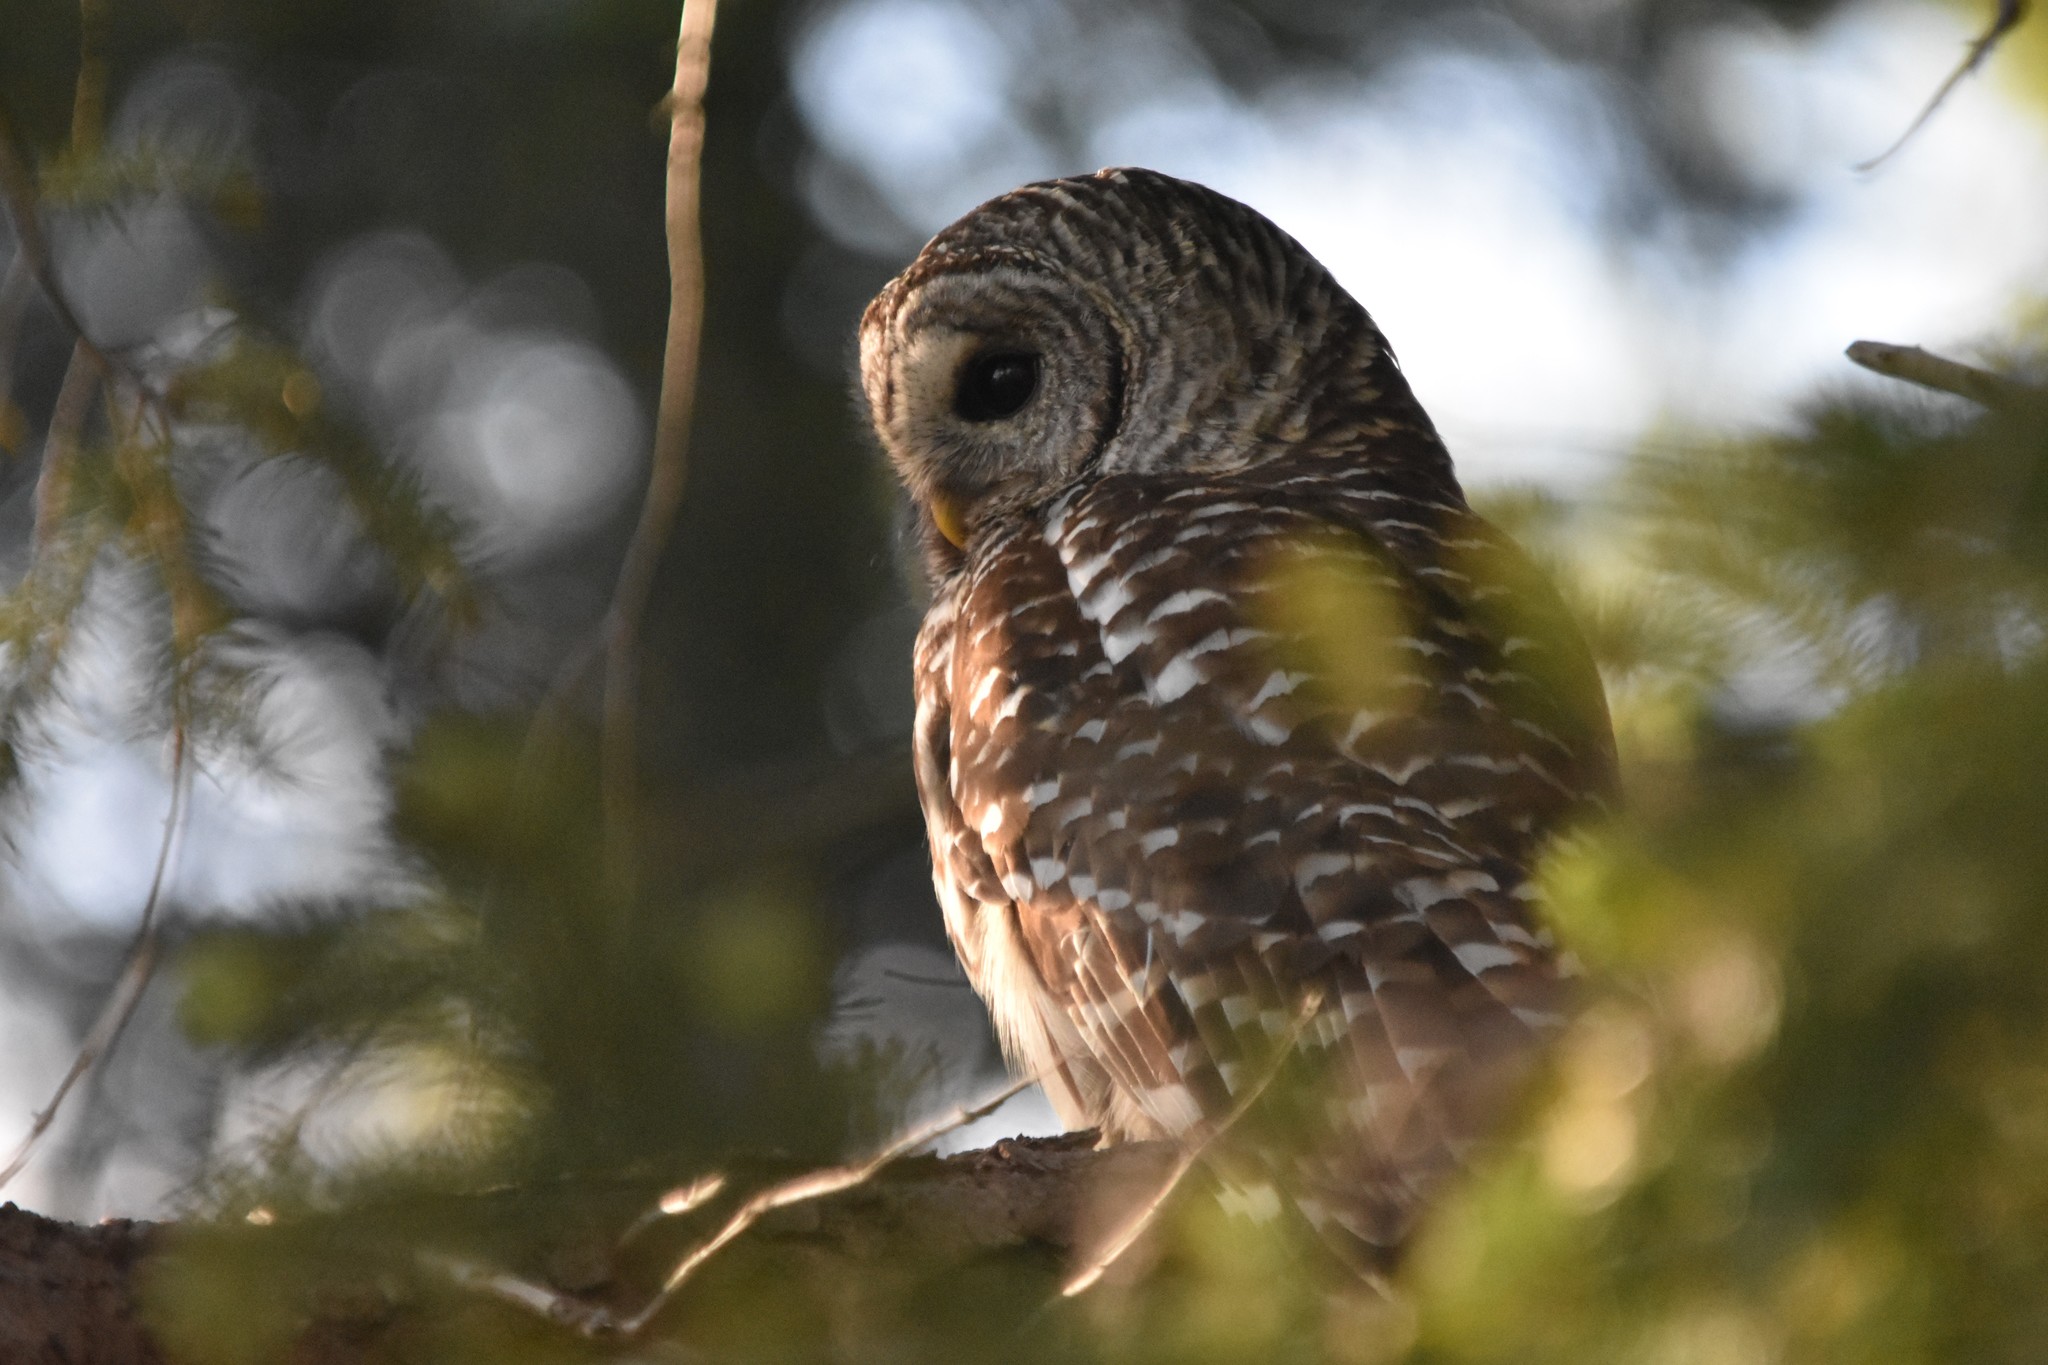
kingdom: Animalia
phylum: Chordata
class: Aves
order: Strigiformes
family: Strigidae
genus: Strix
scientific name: Strix varia
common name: Barred owl
